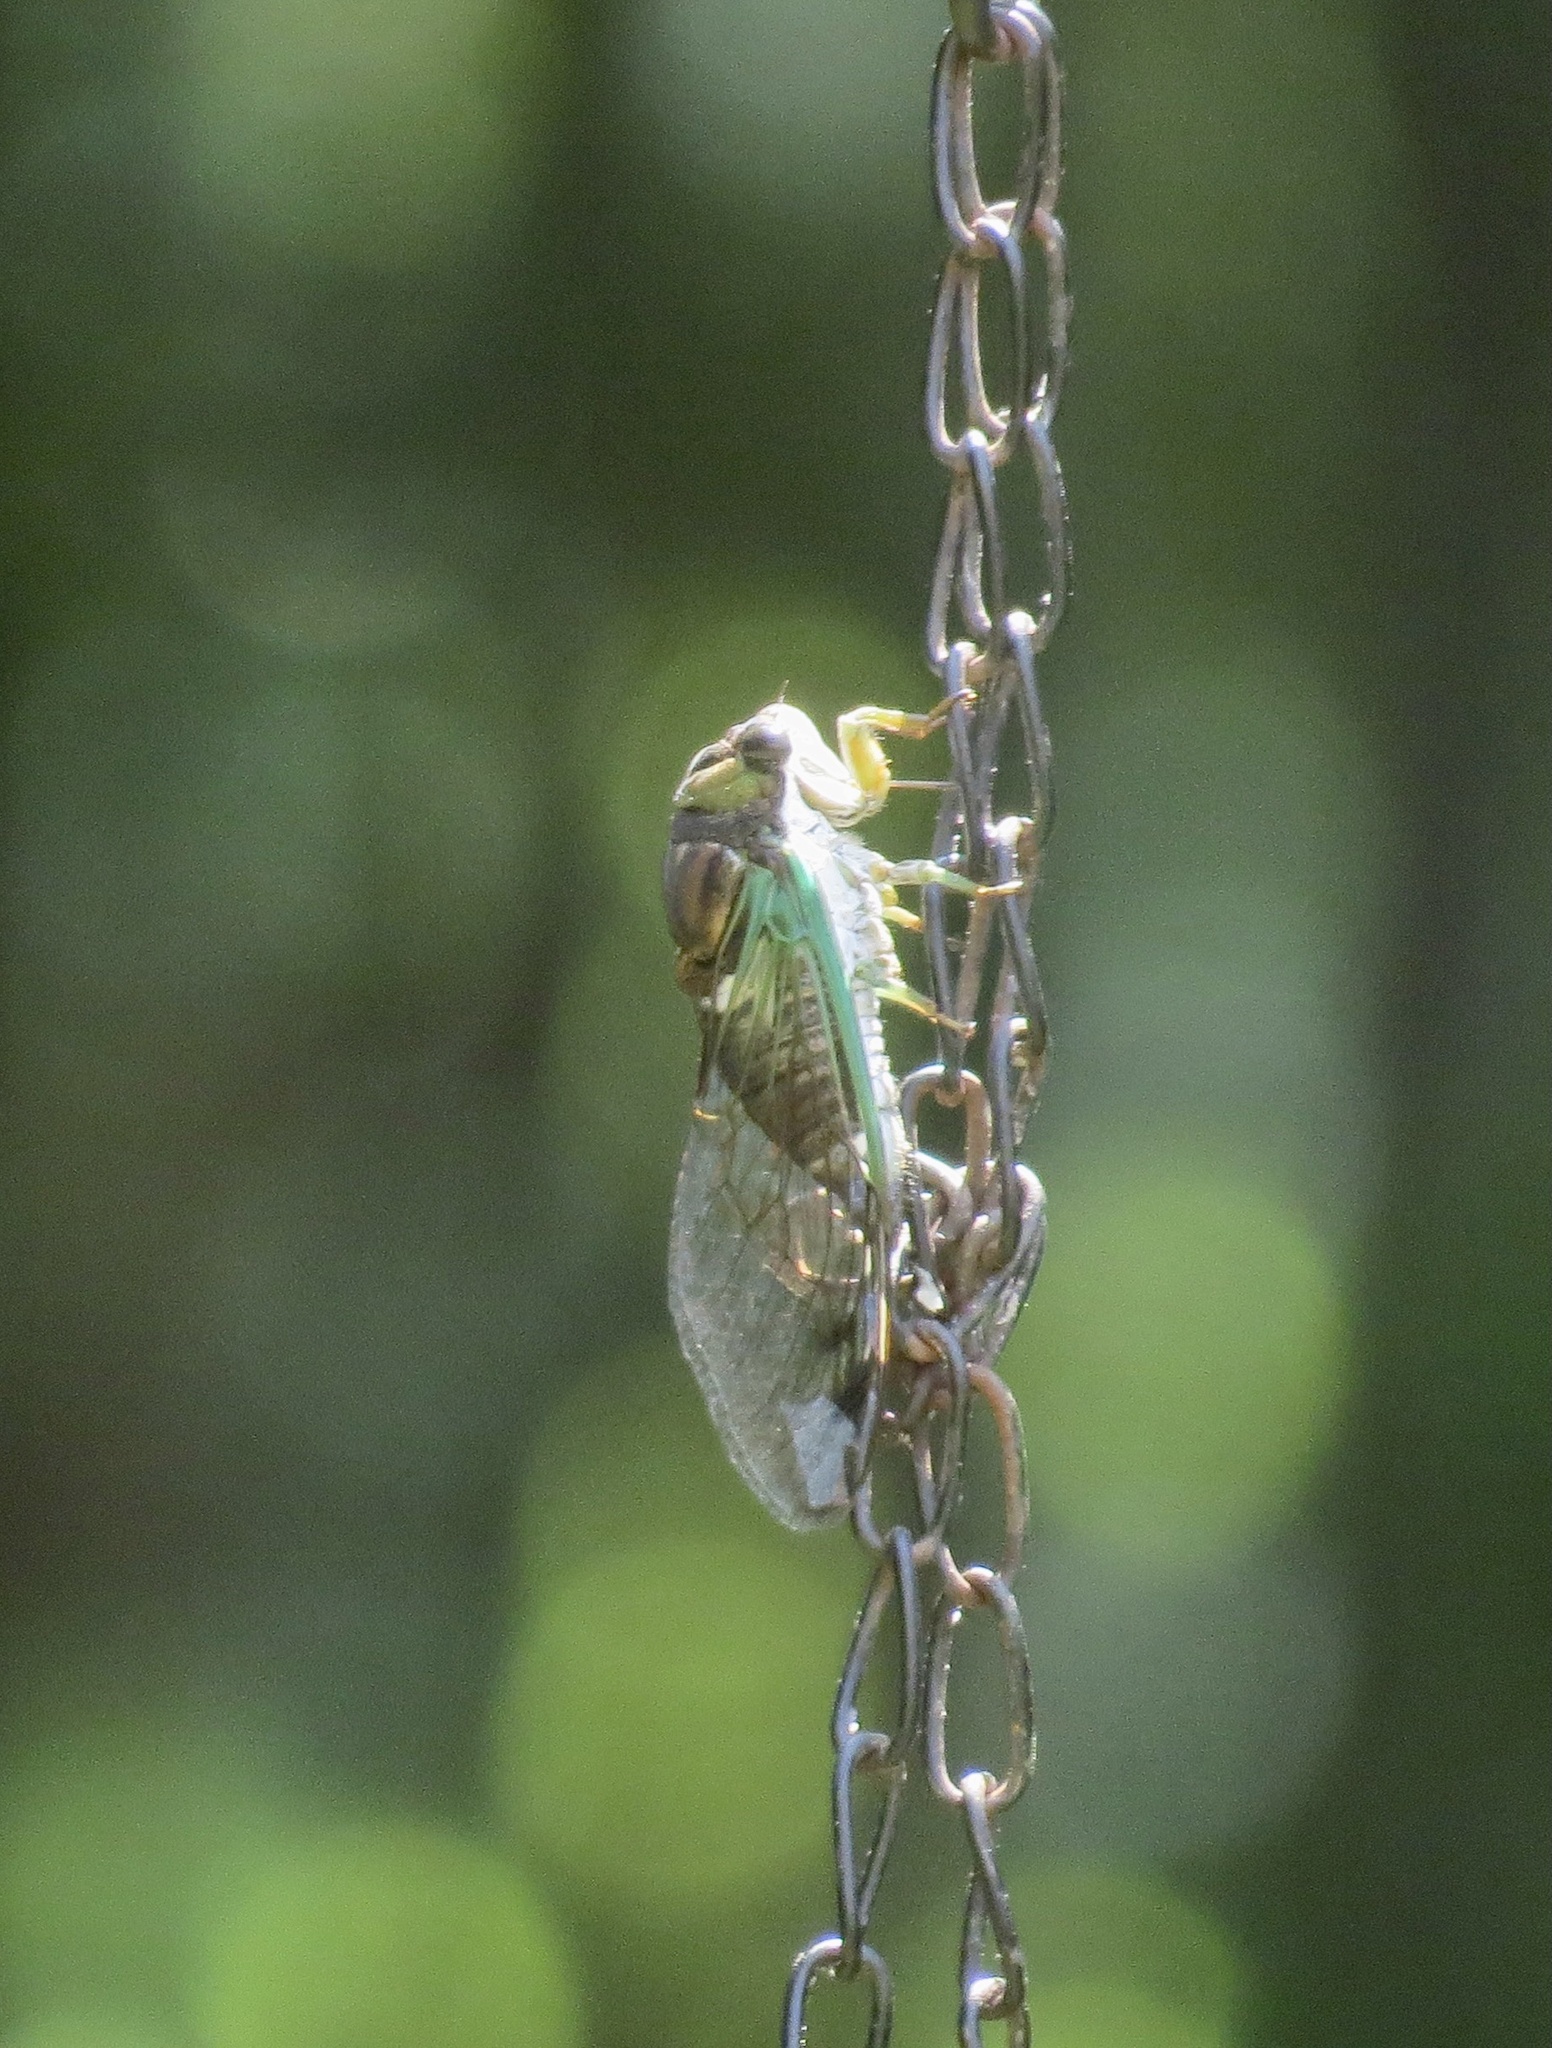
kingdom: Animalia
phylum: Arthropoda
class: Insecta
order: Hemiptera
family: Cicadidae
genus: Neotibicen
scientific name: Neotibicen tibicen
